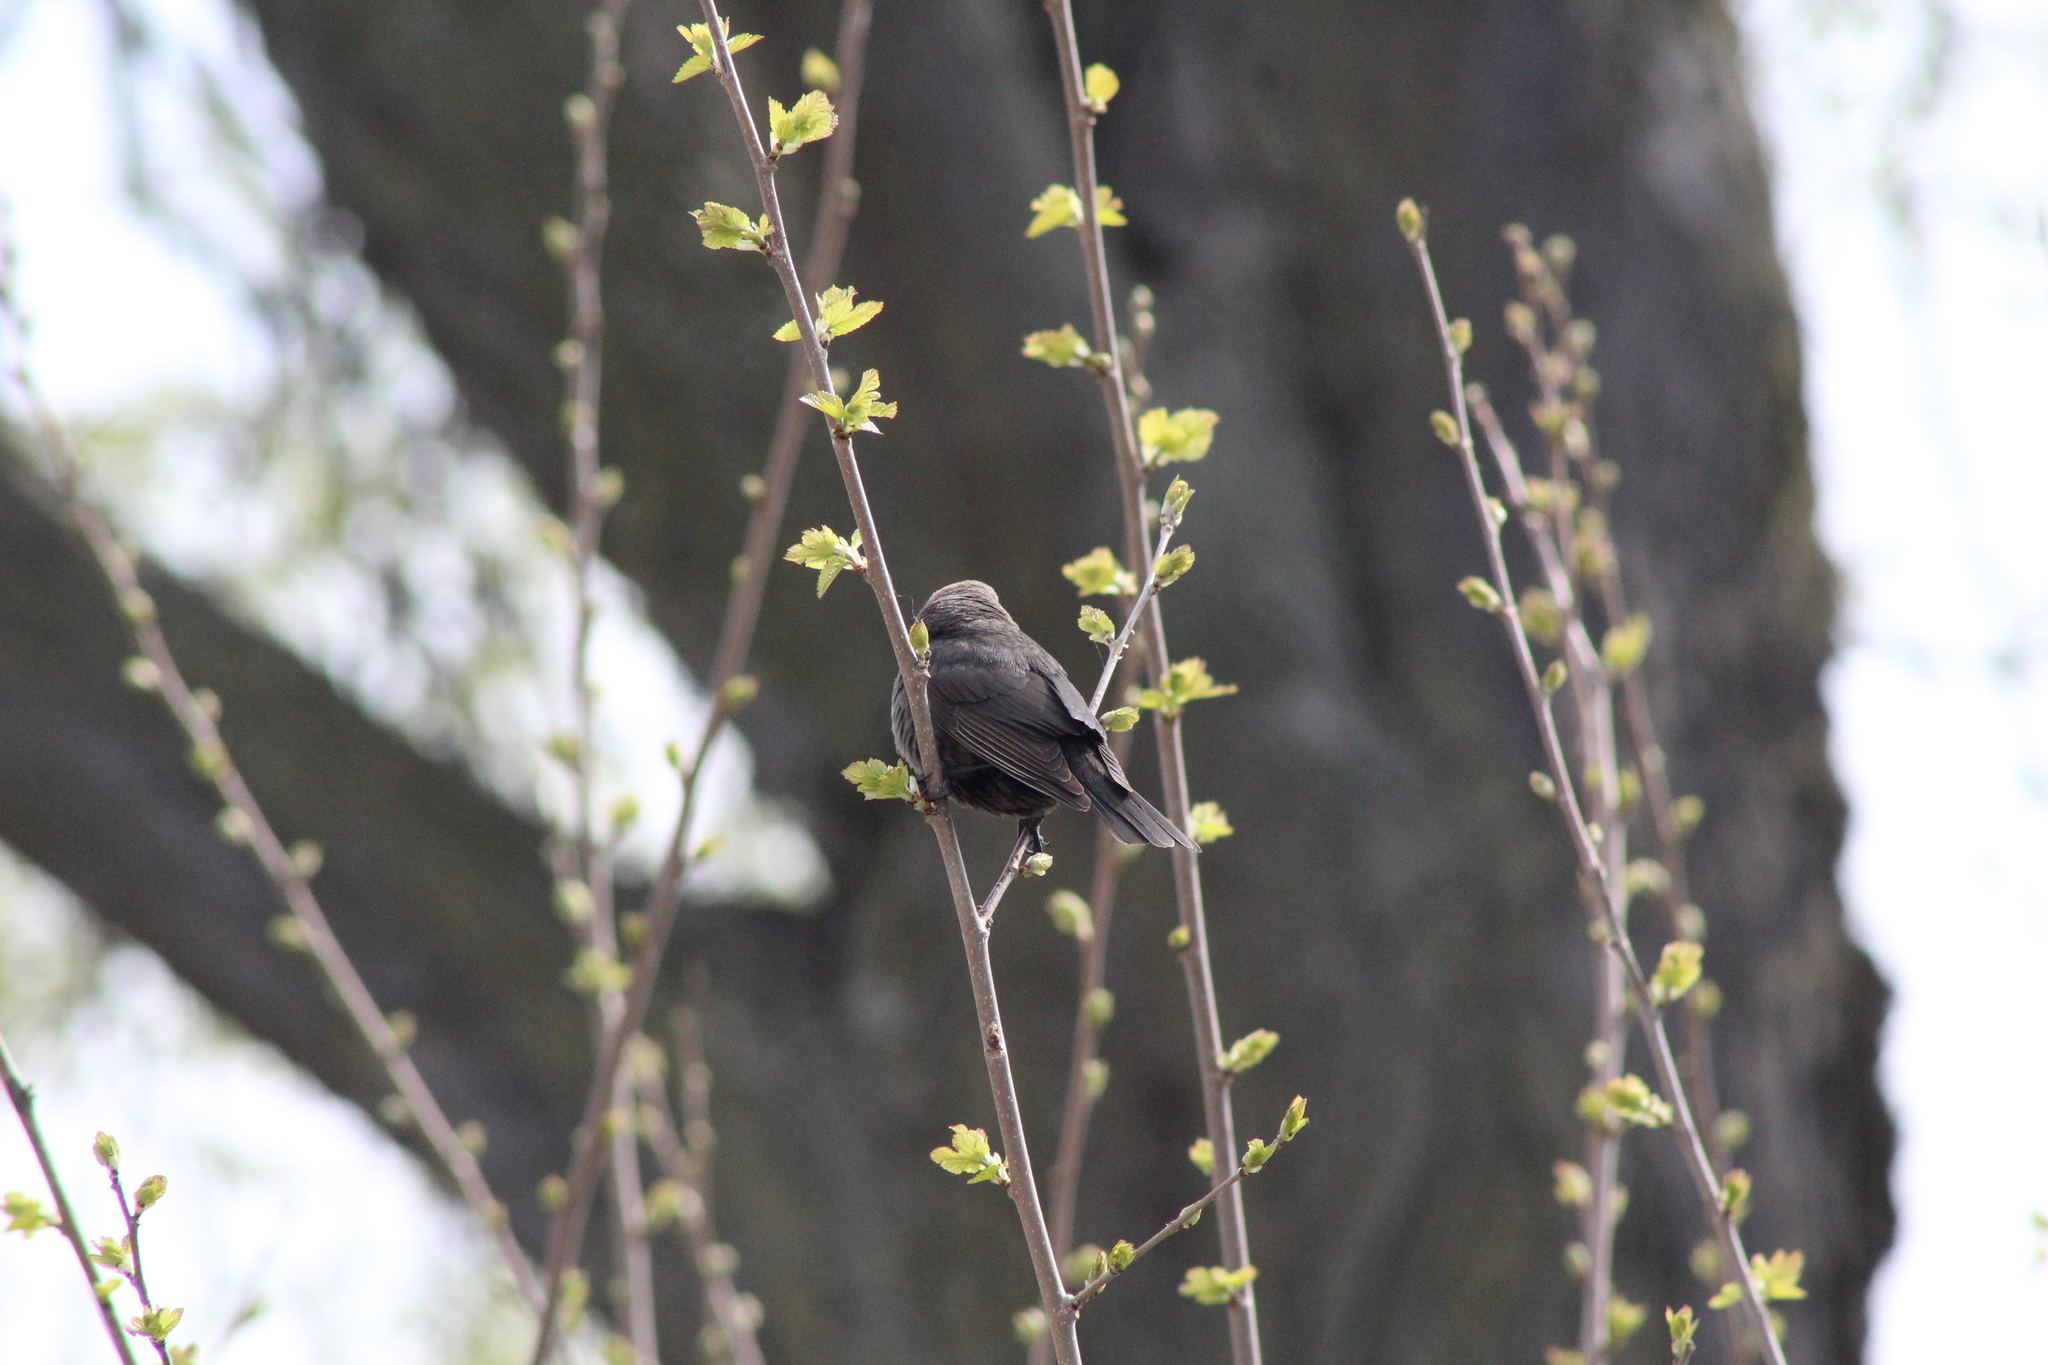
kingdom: Animalia
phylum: Chordata
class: Aves
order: Passeriformes
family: Icteridae
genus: Molothrus
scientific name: Molothrus ater
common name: Brown-headed cowbird
